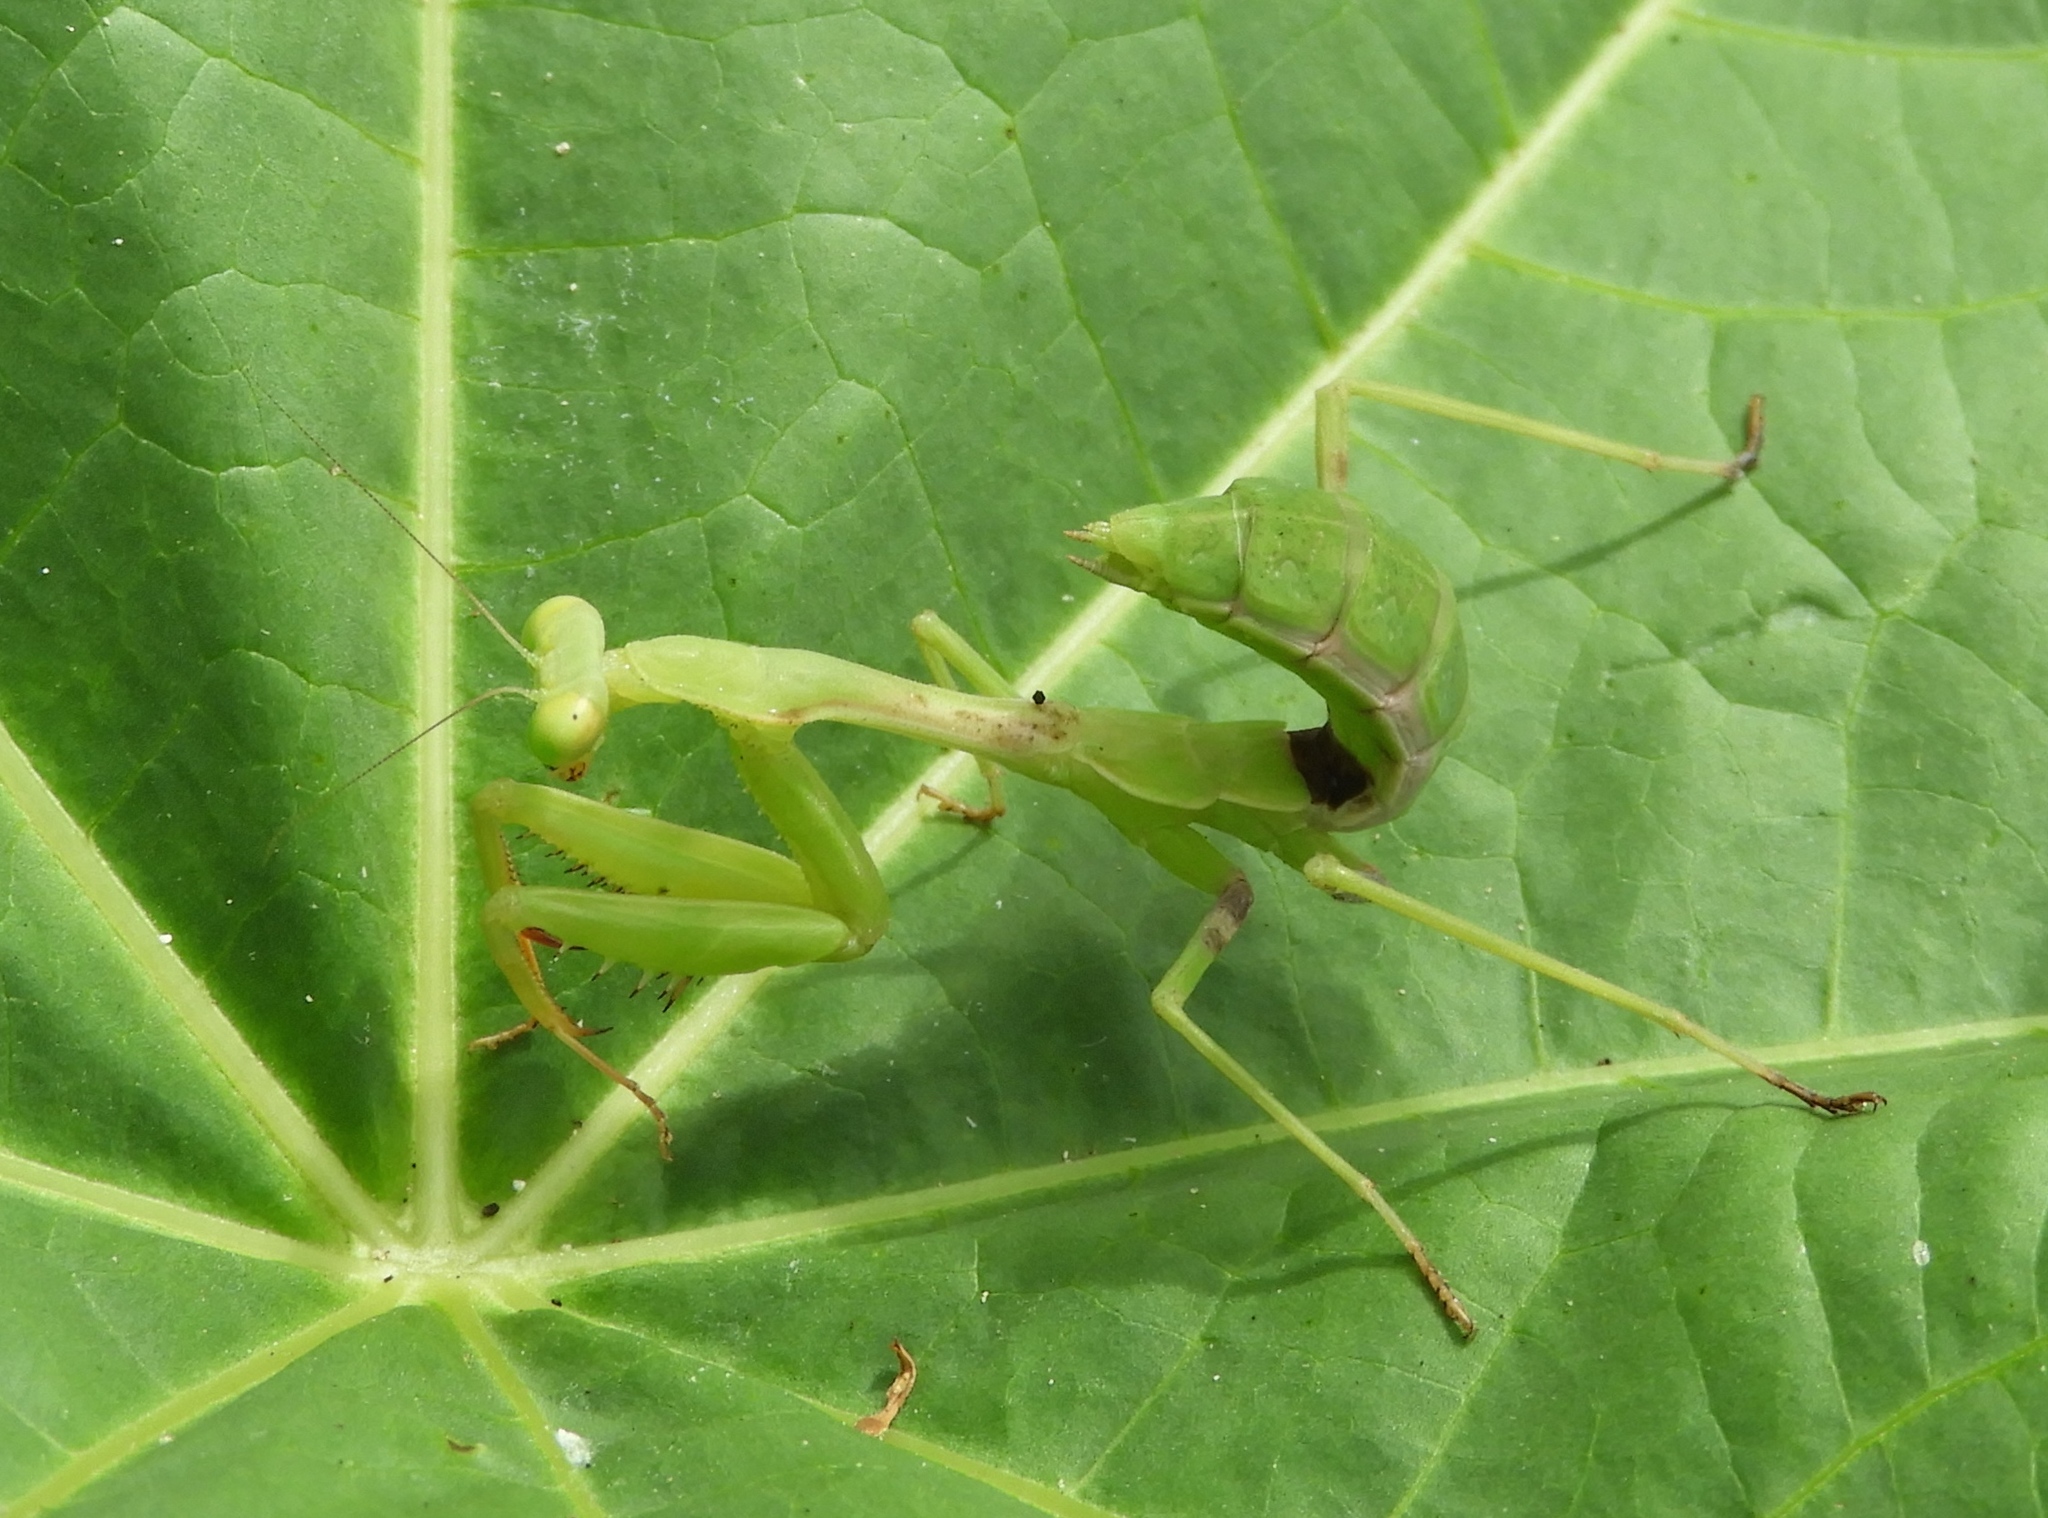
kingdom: Animalia
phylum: Arthropoda
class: Insecta
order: Mantodea
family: Mantidae
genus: Stagmomantis
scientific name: Stagmomantis limbata
